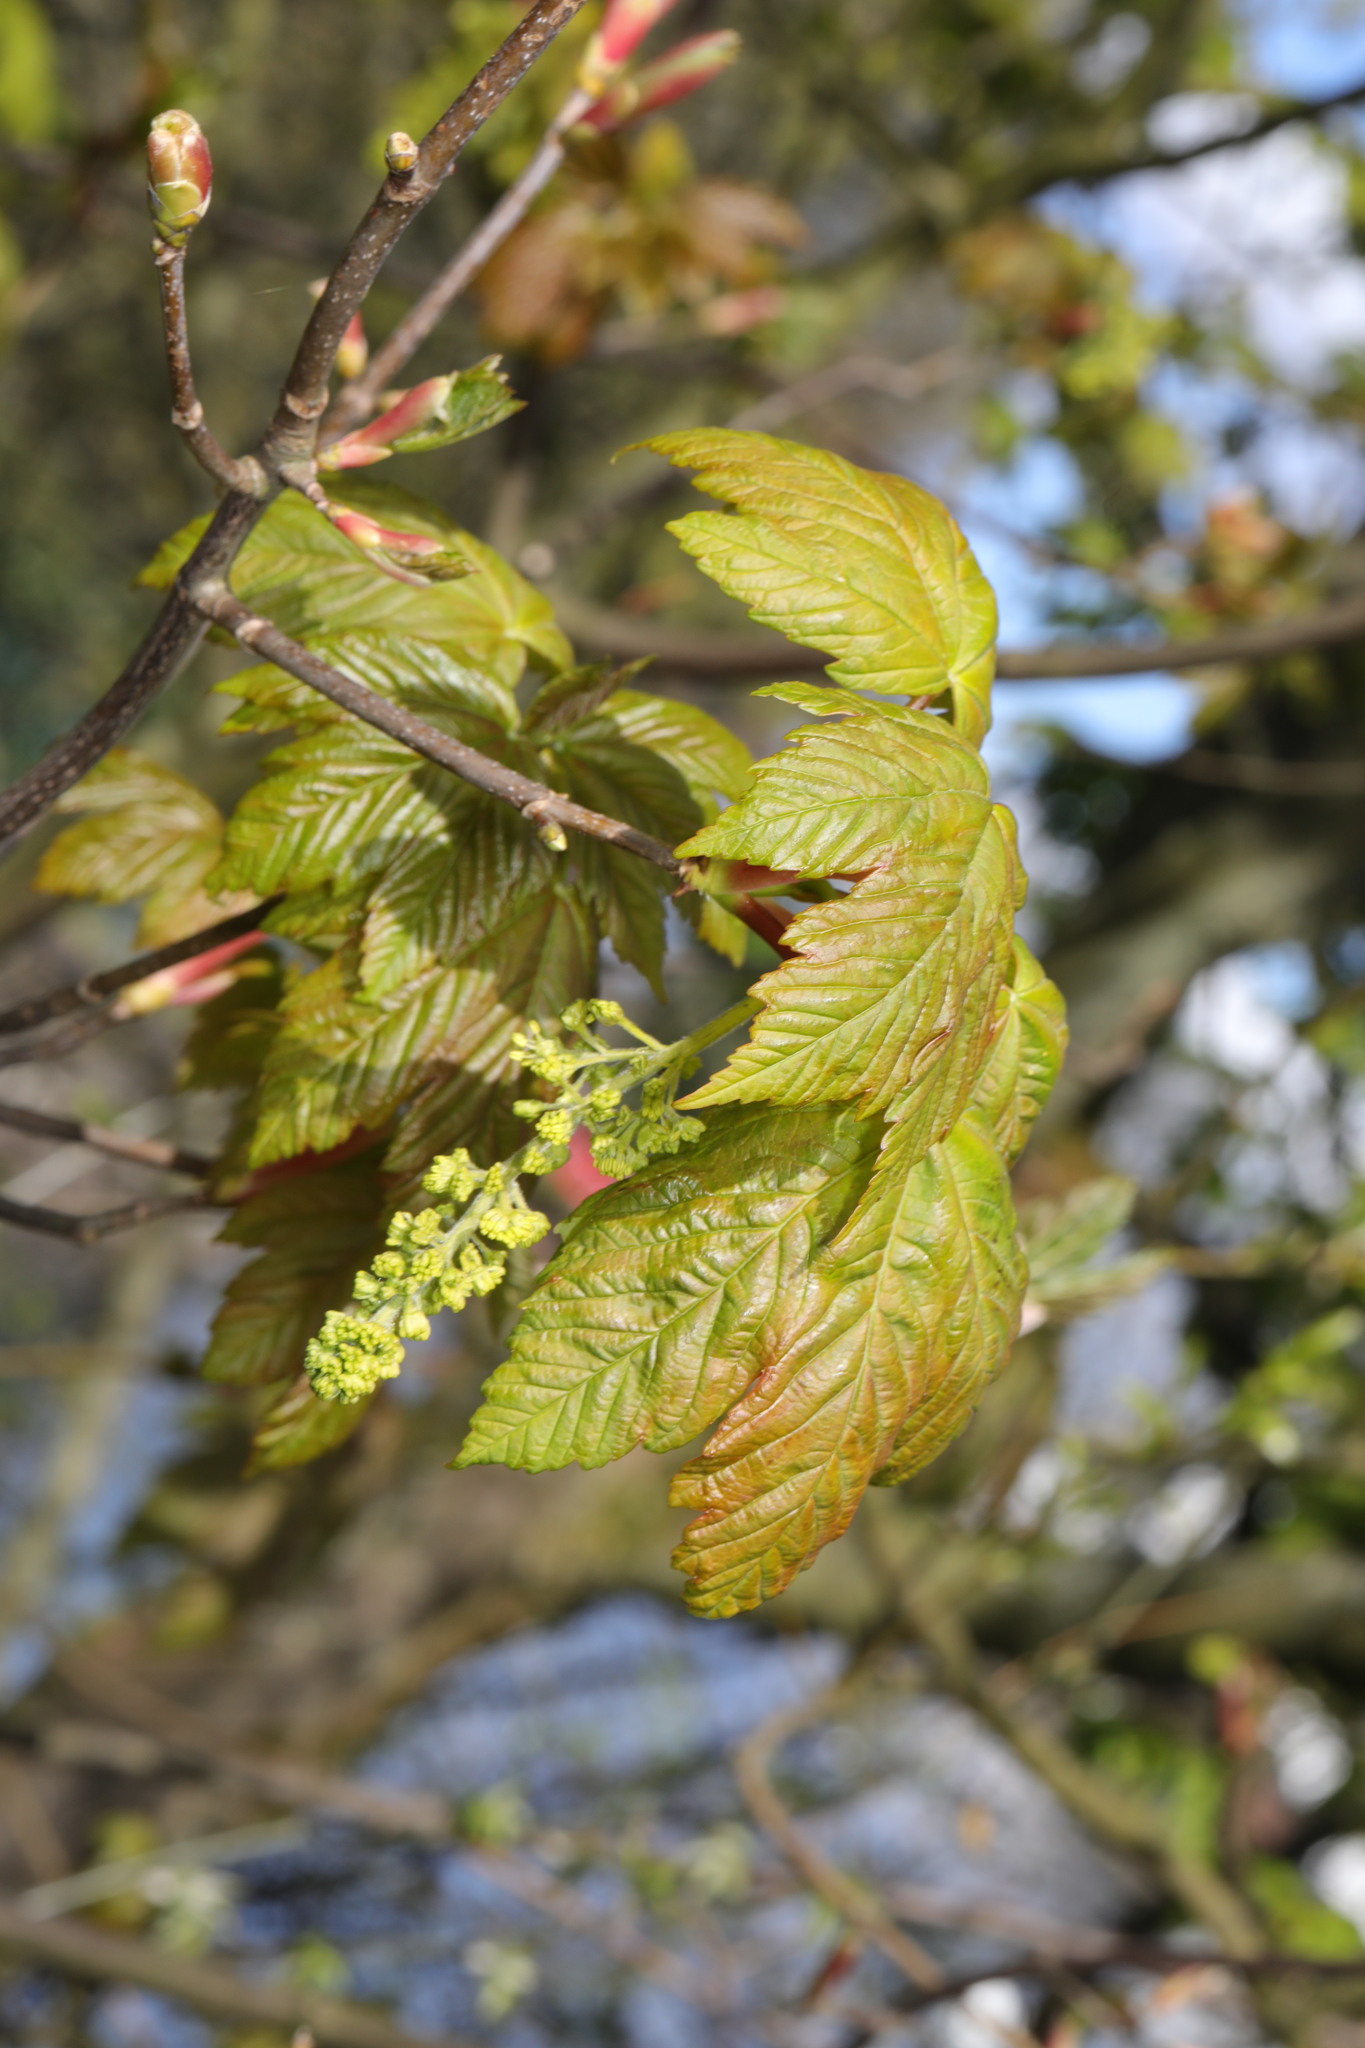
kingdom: Plantae
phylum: Tracheophyta
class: Magnoliopsida
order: Sapindales
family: Sapindaceae
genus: Acer
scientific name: Acer pseudoplatanus
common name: Sycamore
